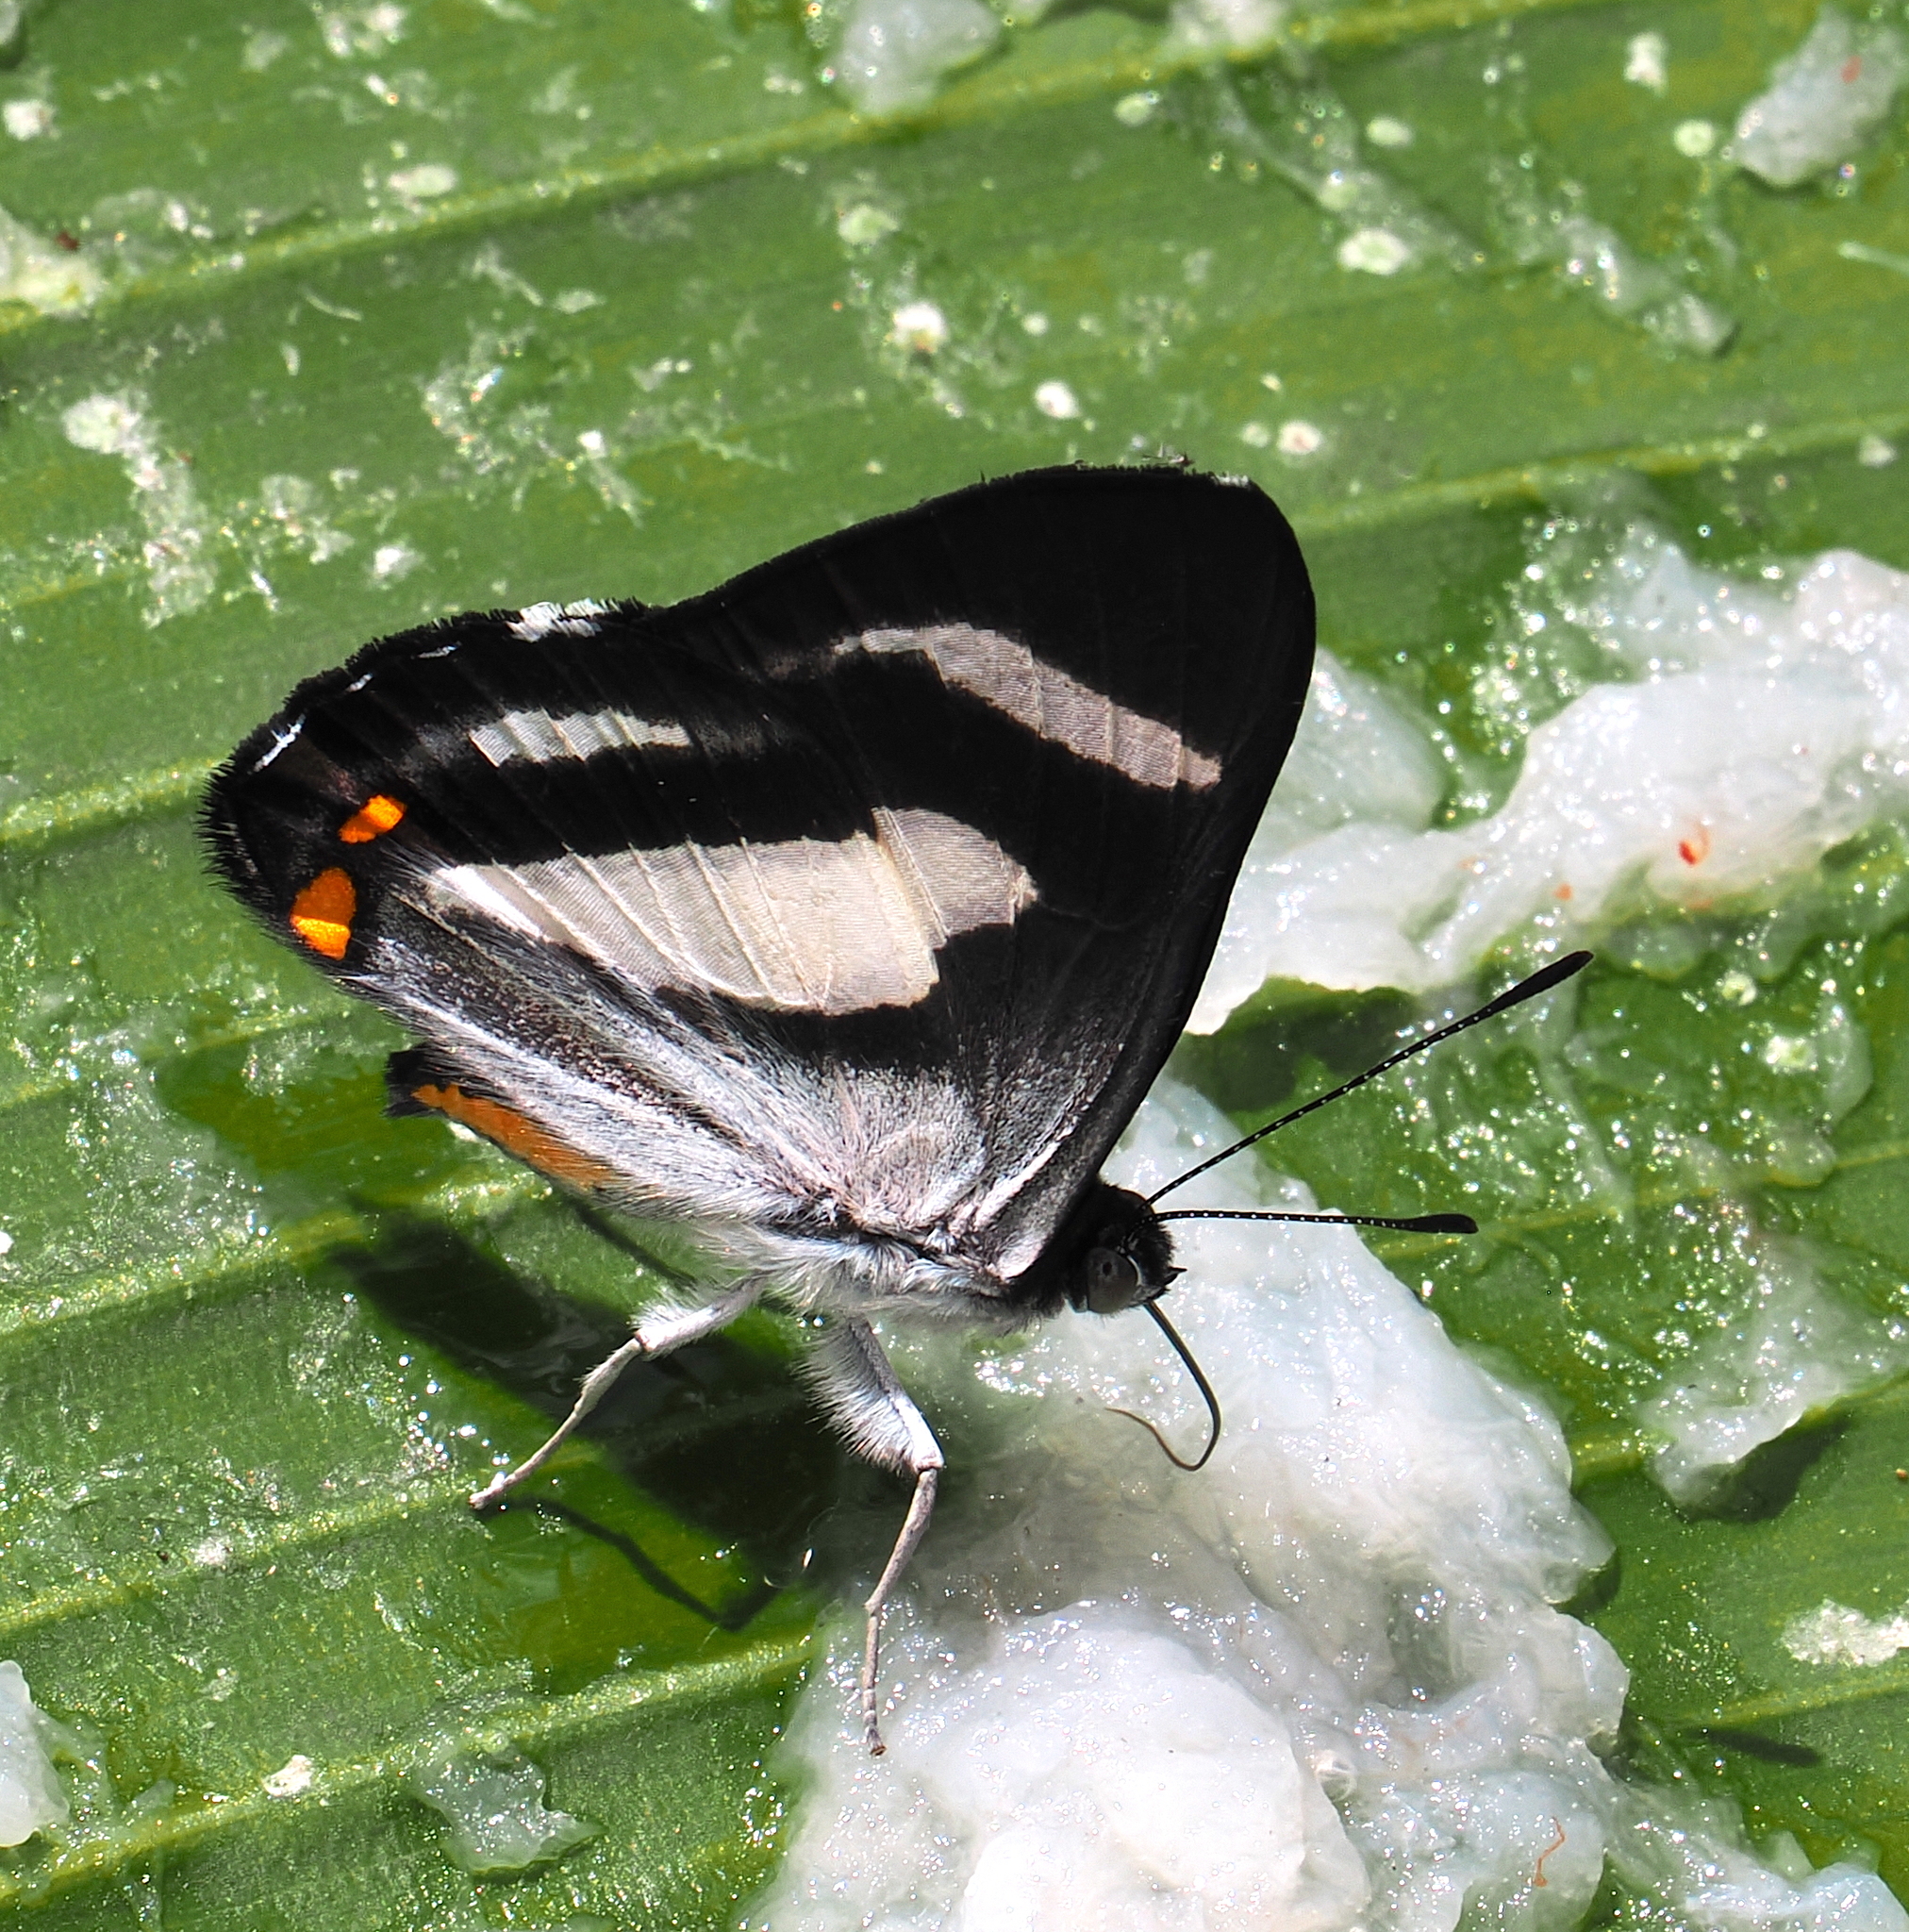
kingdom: Animalia
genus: Siseme
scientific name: Siseme alectryo
